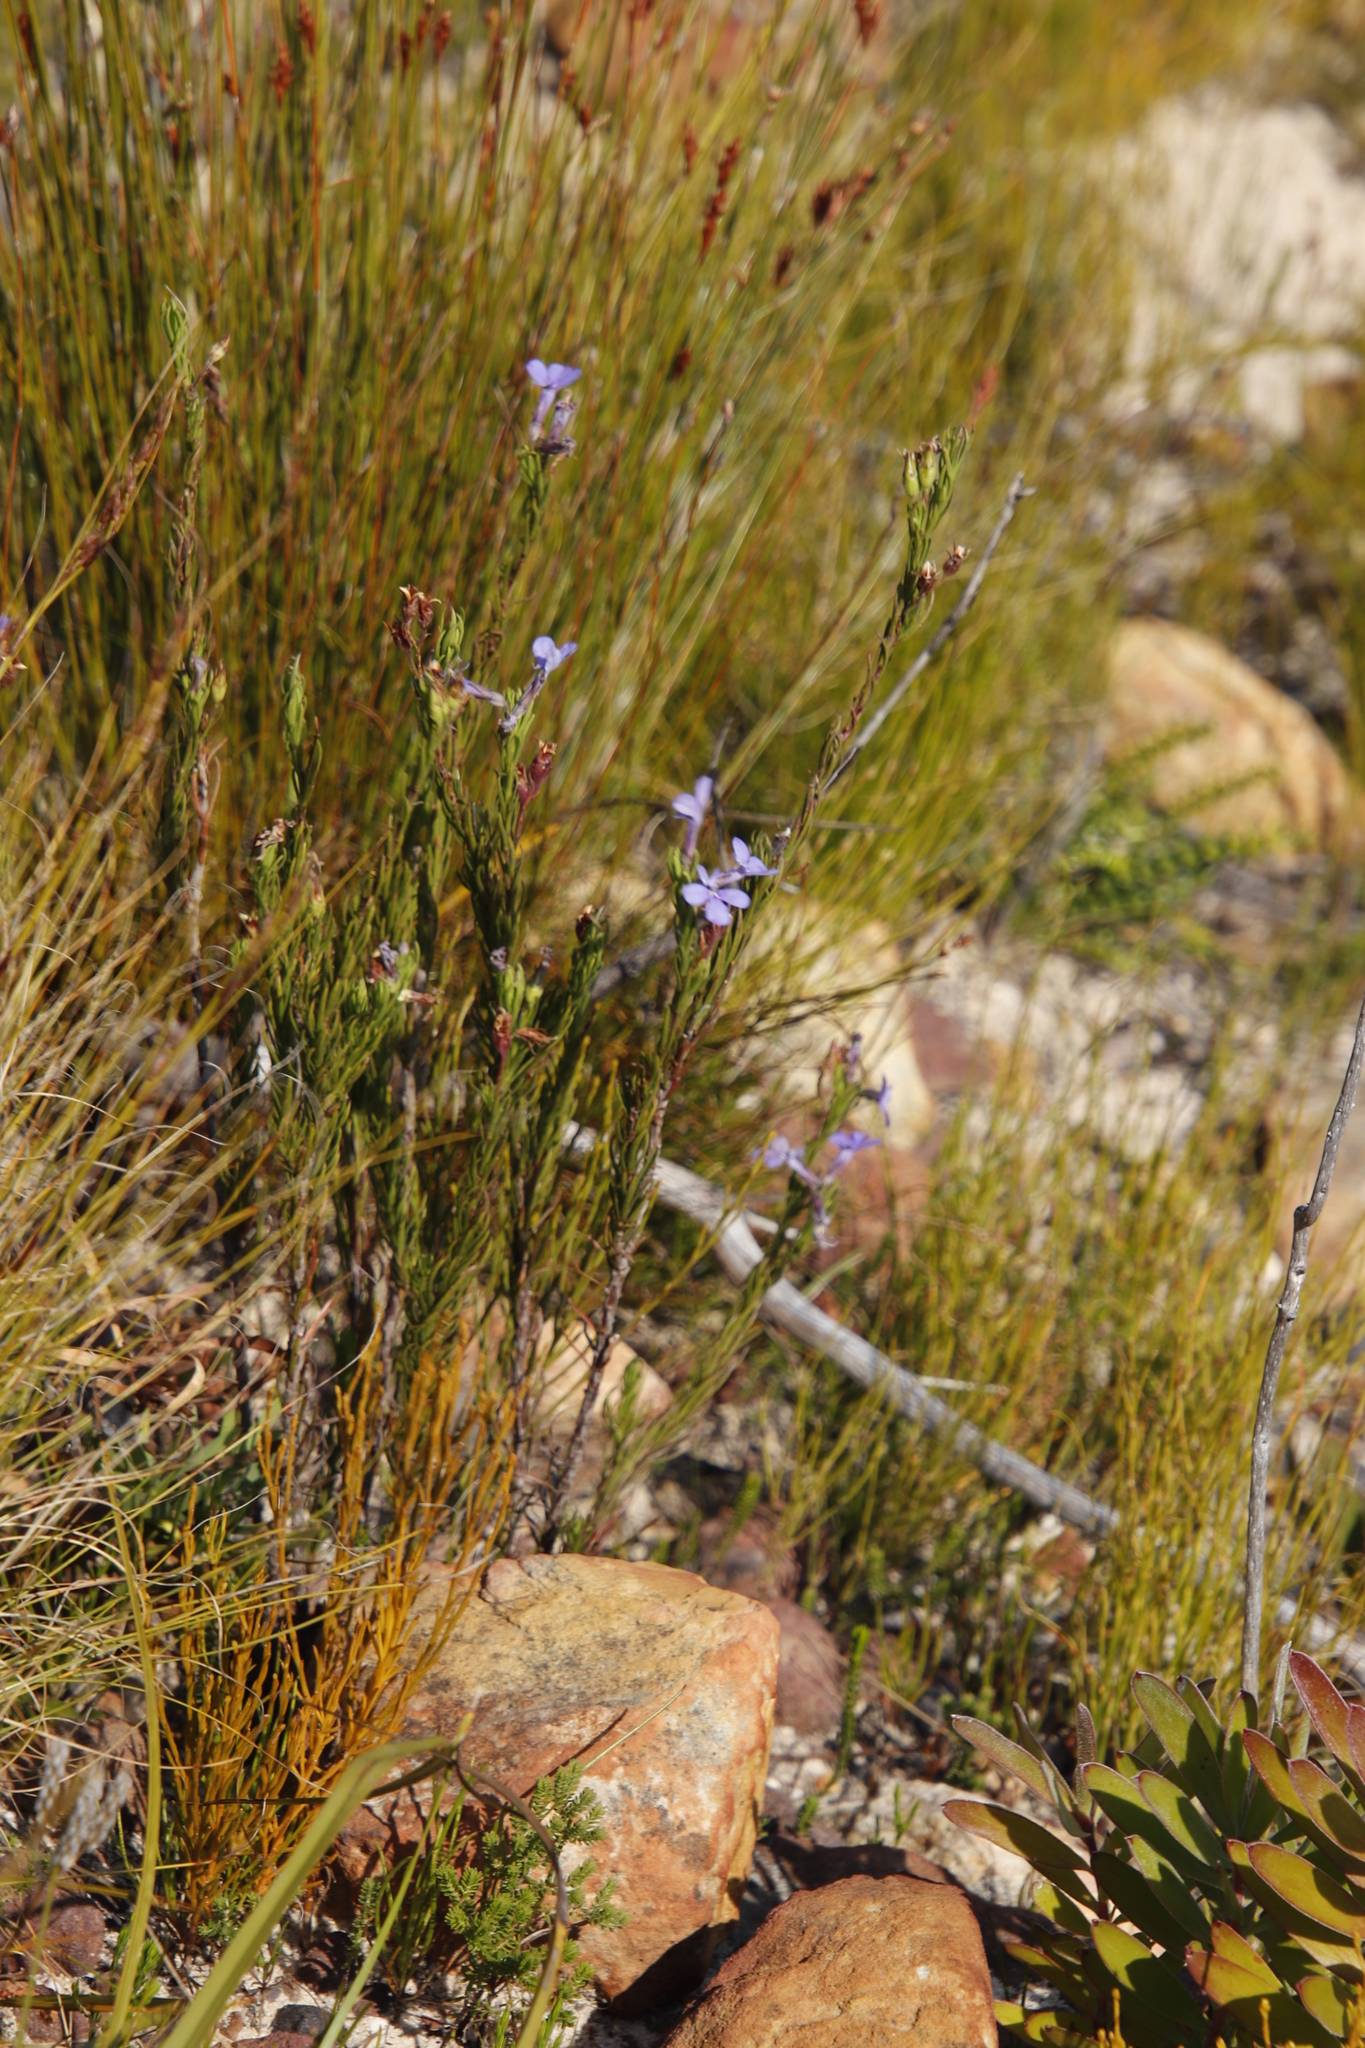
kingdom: Plantae
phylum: Tracheophyta
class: Magnoliopsida
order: Asterales
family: Campanulaceae
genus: Lobelia
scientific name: Lobelia pinifolia
